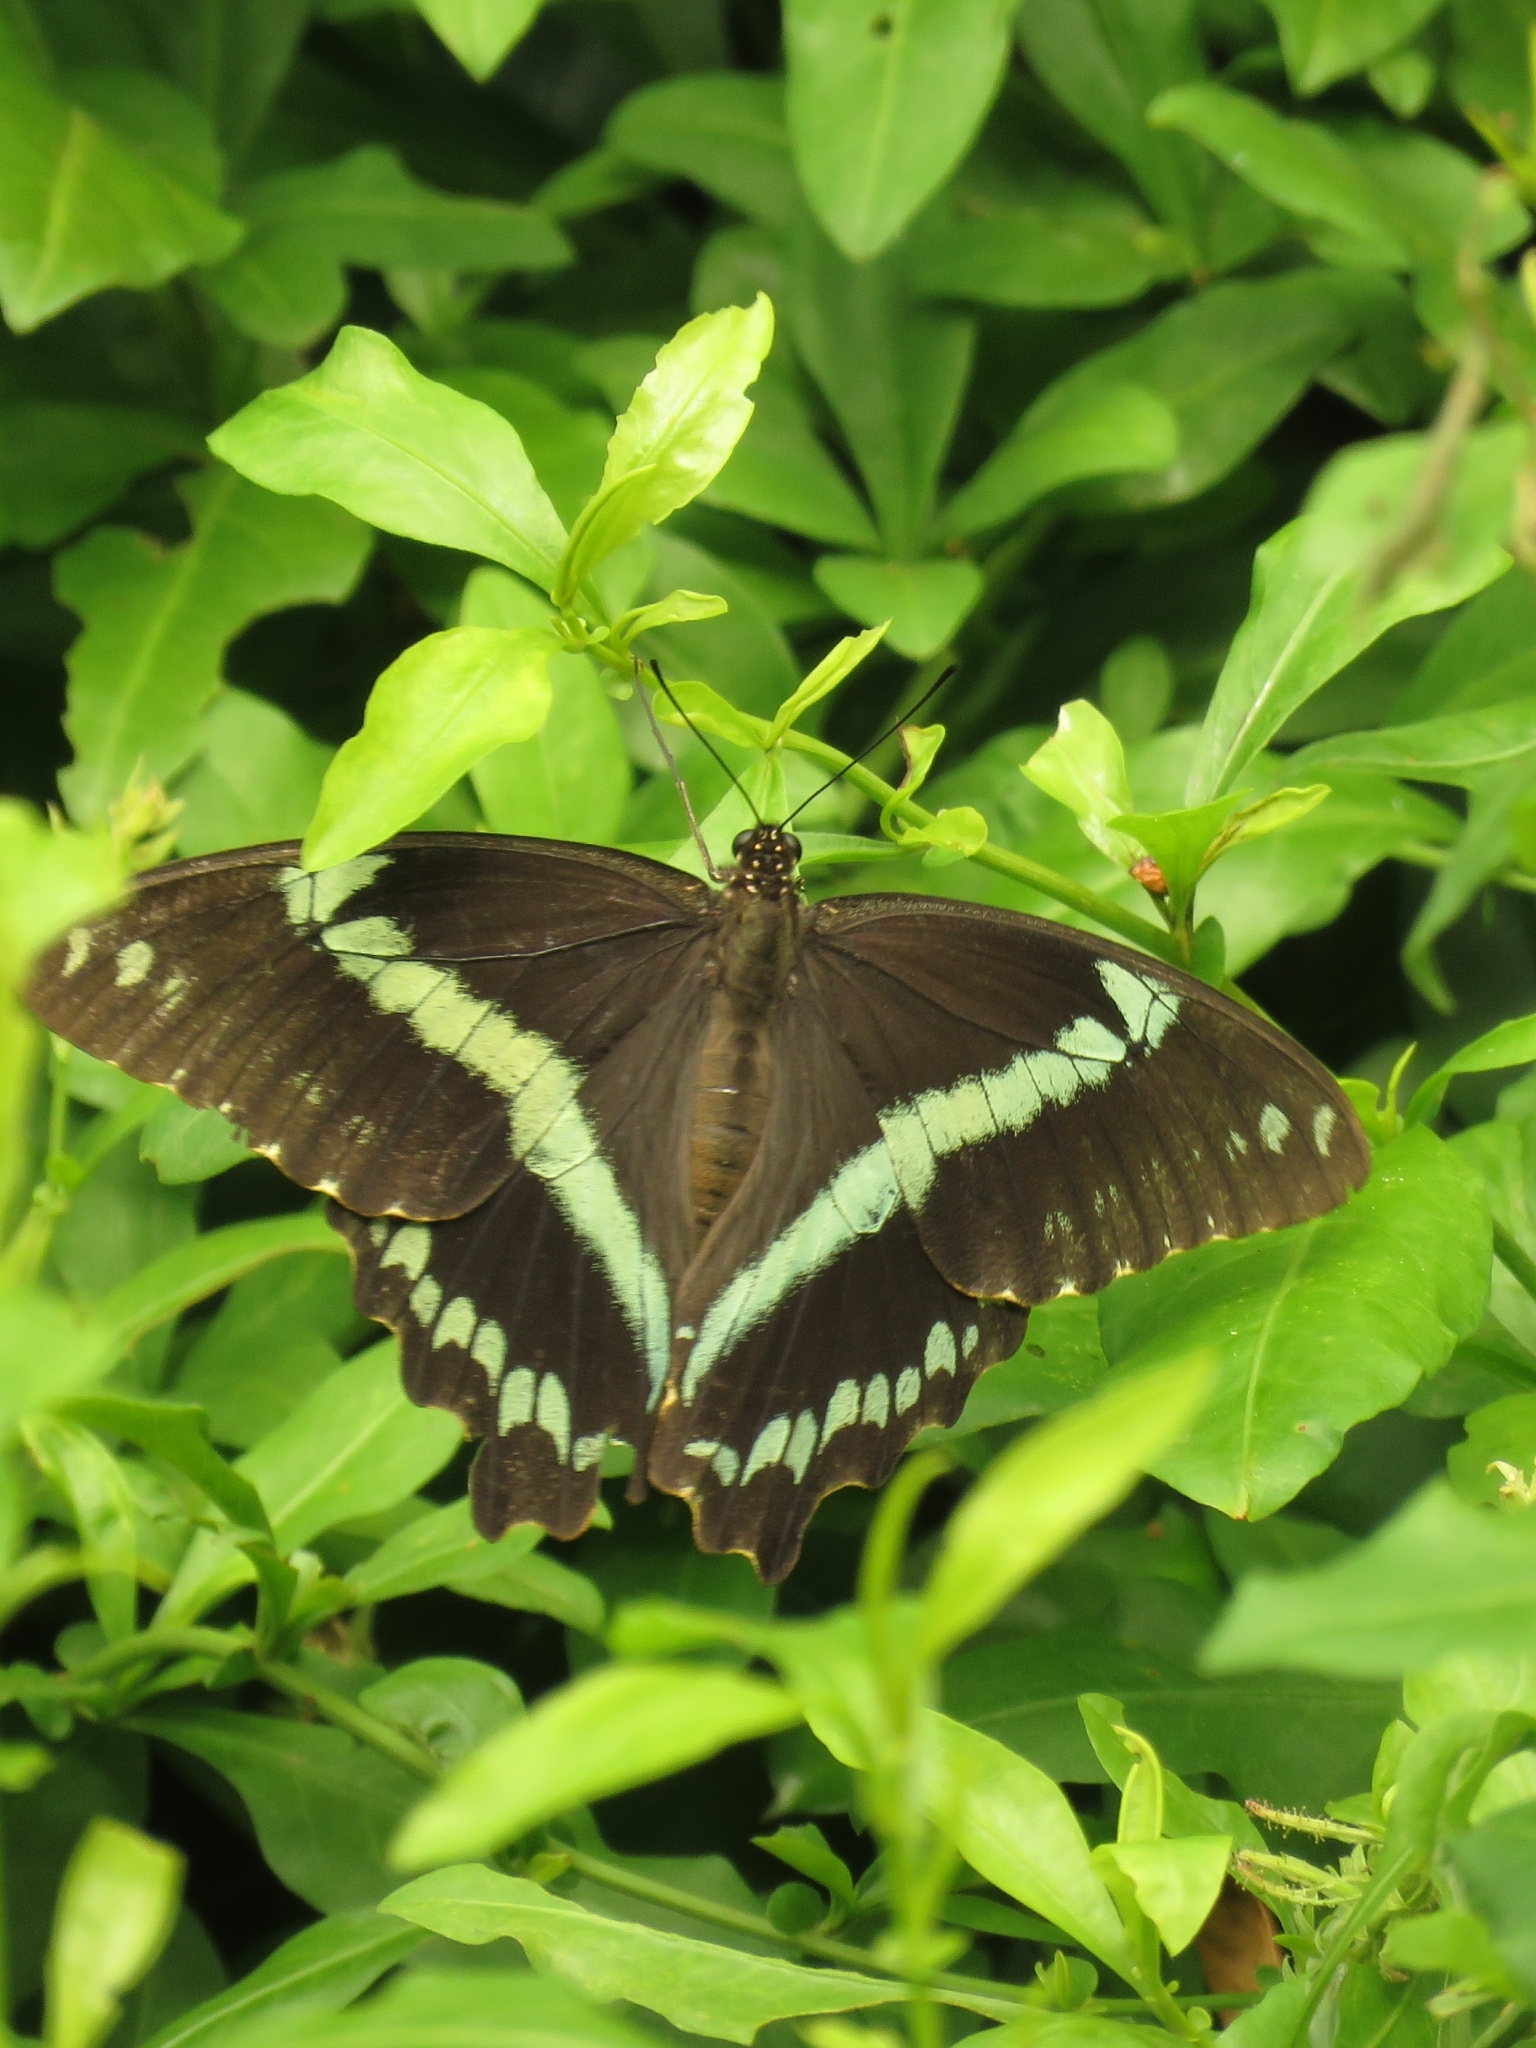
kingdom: Animalia
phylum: Arthropoda
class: Insecta
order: Lepidoptera
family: Papilionidae
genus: Papilio
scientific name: Papilio nireus
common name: Greenbanded swallowtail
